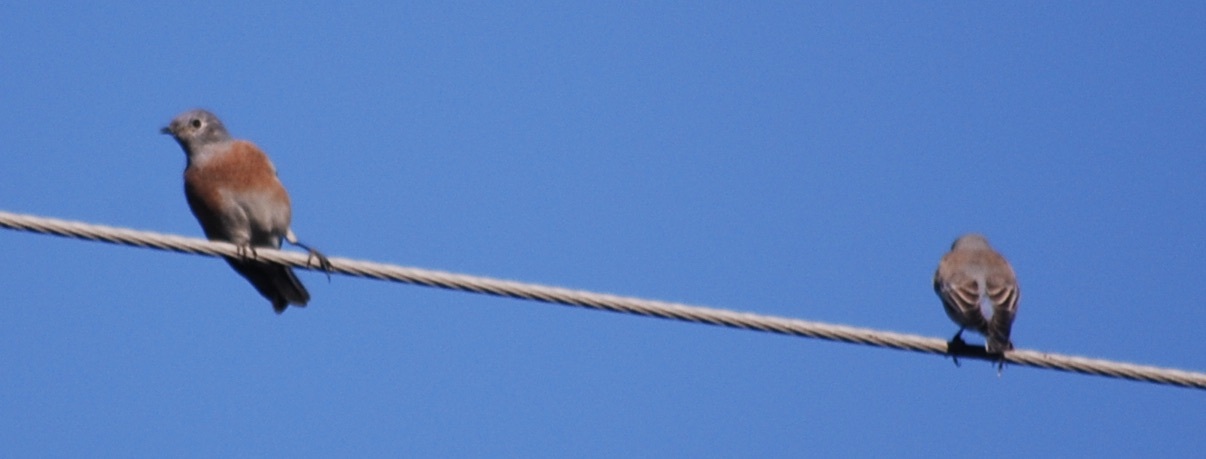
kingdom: Animalia
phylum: Chordata
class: Aves
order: Passeriformes
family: Turdidae
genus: Sialia
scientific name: Sialia mexicana
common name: Western bluebird
